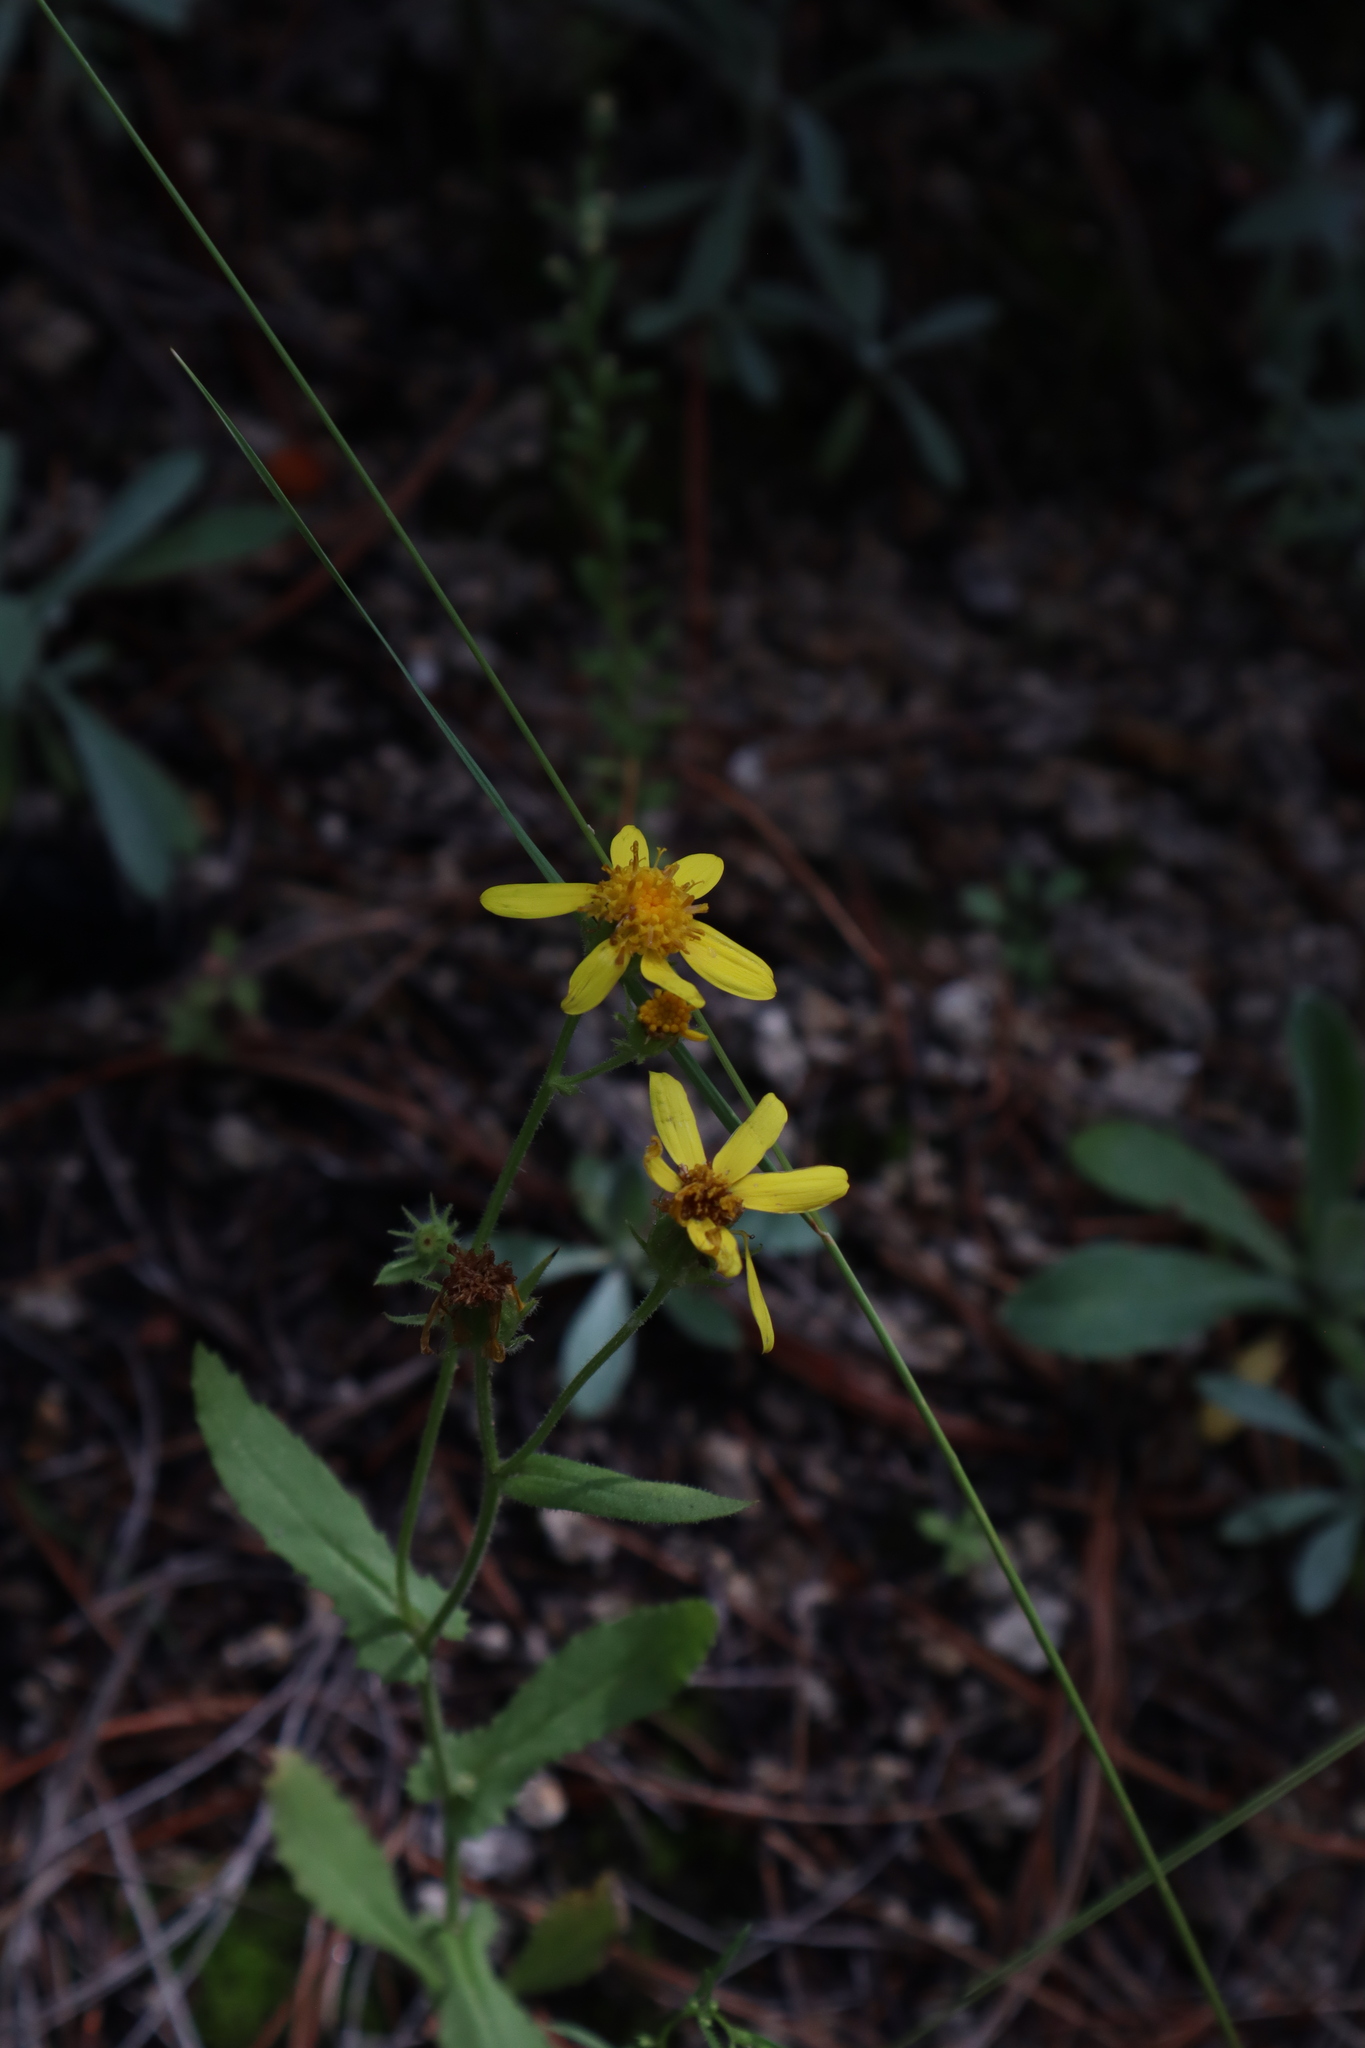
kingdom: Plantae
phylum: Tracheophyta
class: Magnoliopsida
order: Asterales
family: Asteraceae
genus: Senecio
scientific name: Senecio parryi
